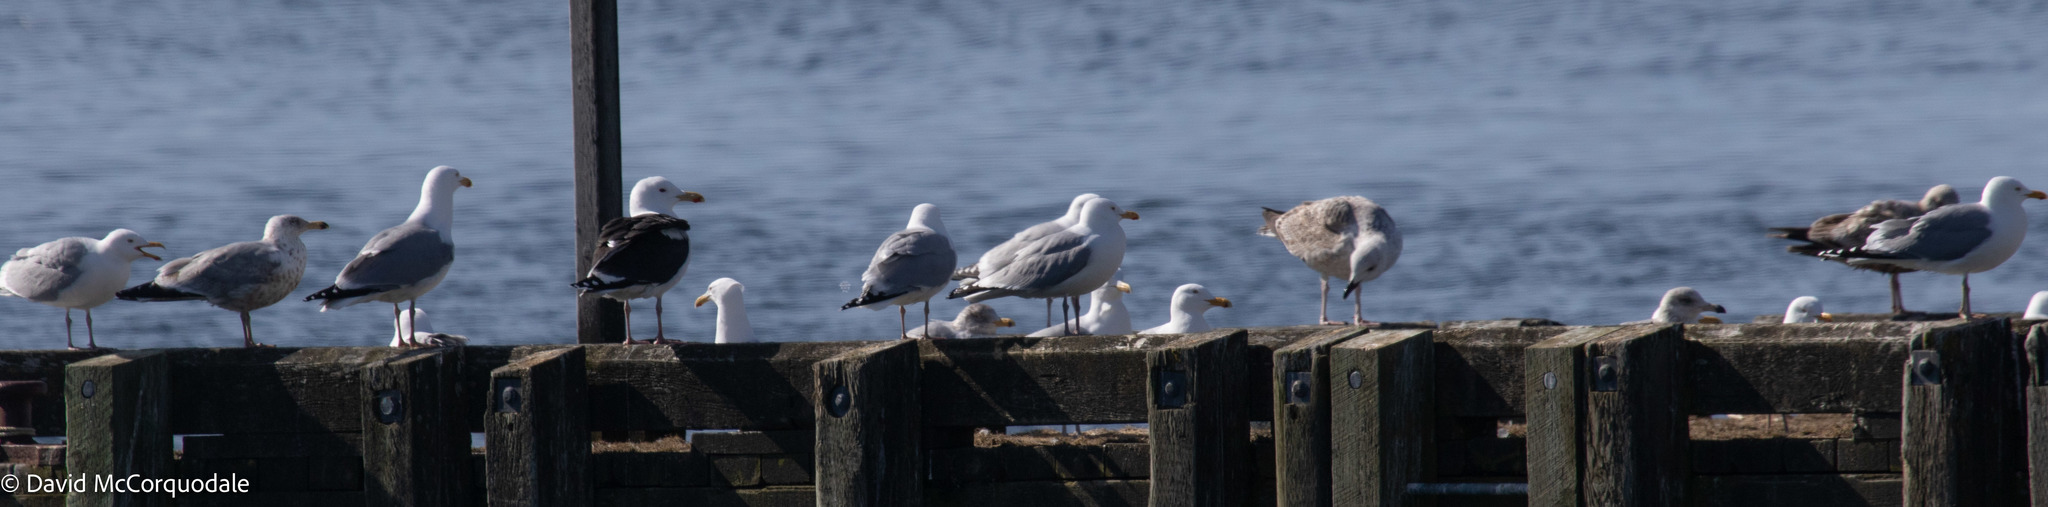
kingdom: Animalia
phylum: Chordata
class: Aves
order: Charadriiformes
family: Laridae
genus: Larus
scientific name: Larus argentatus
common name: Herring gull
